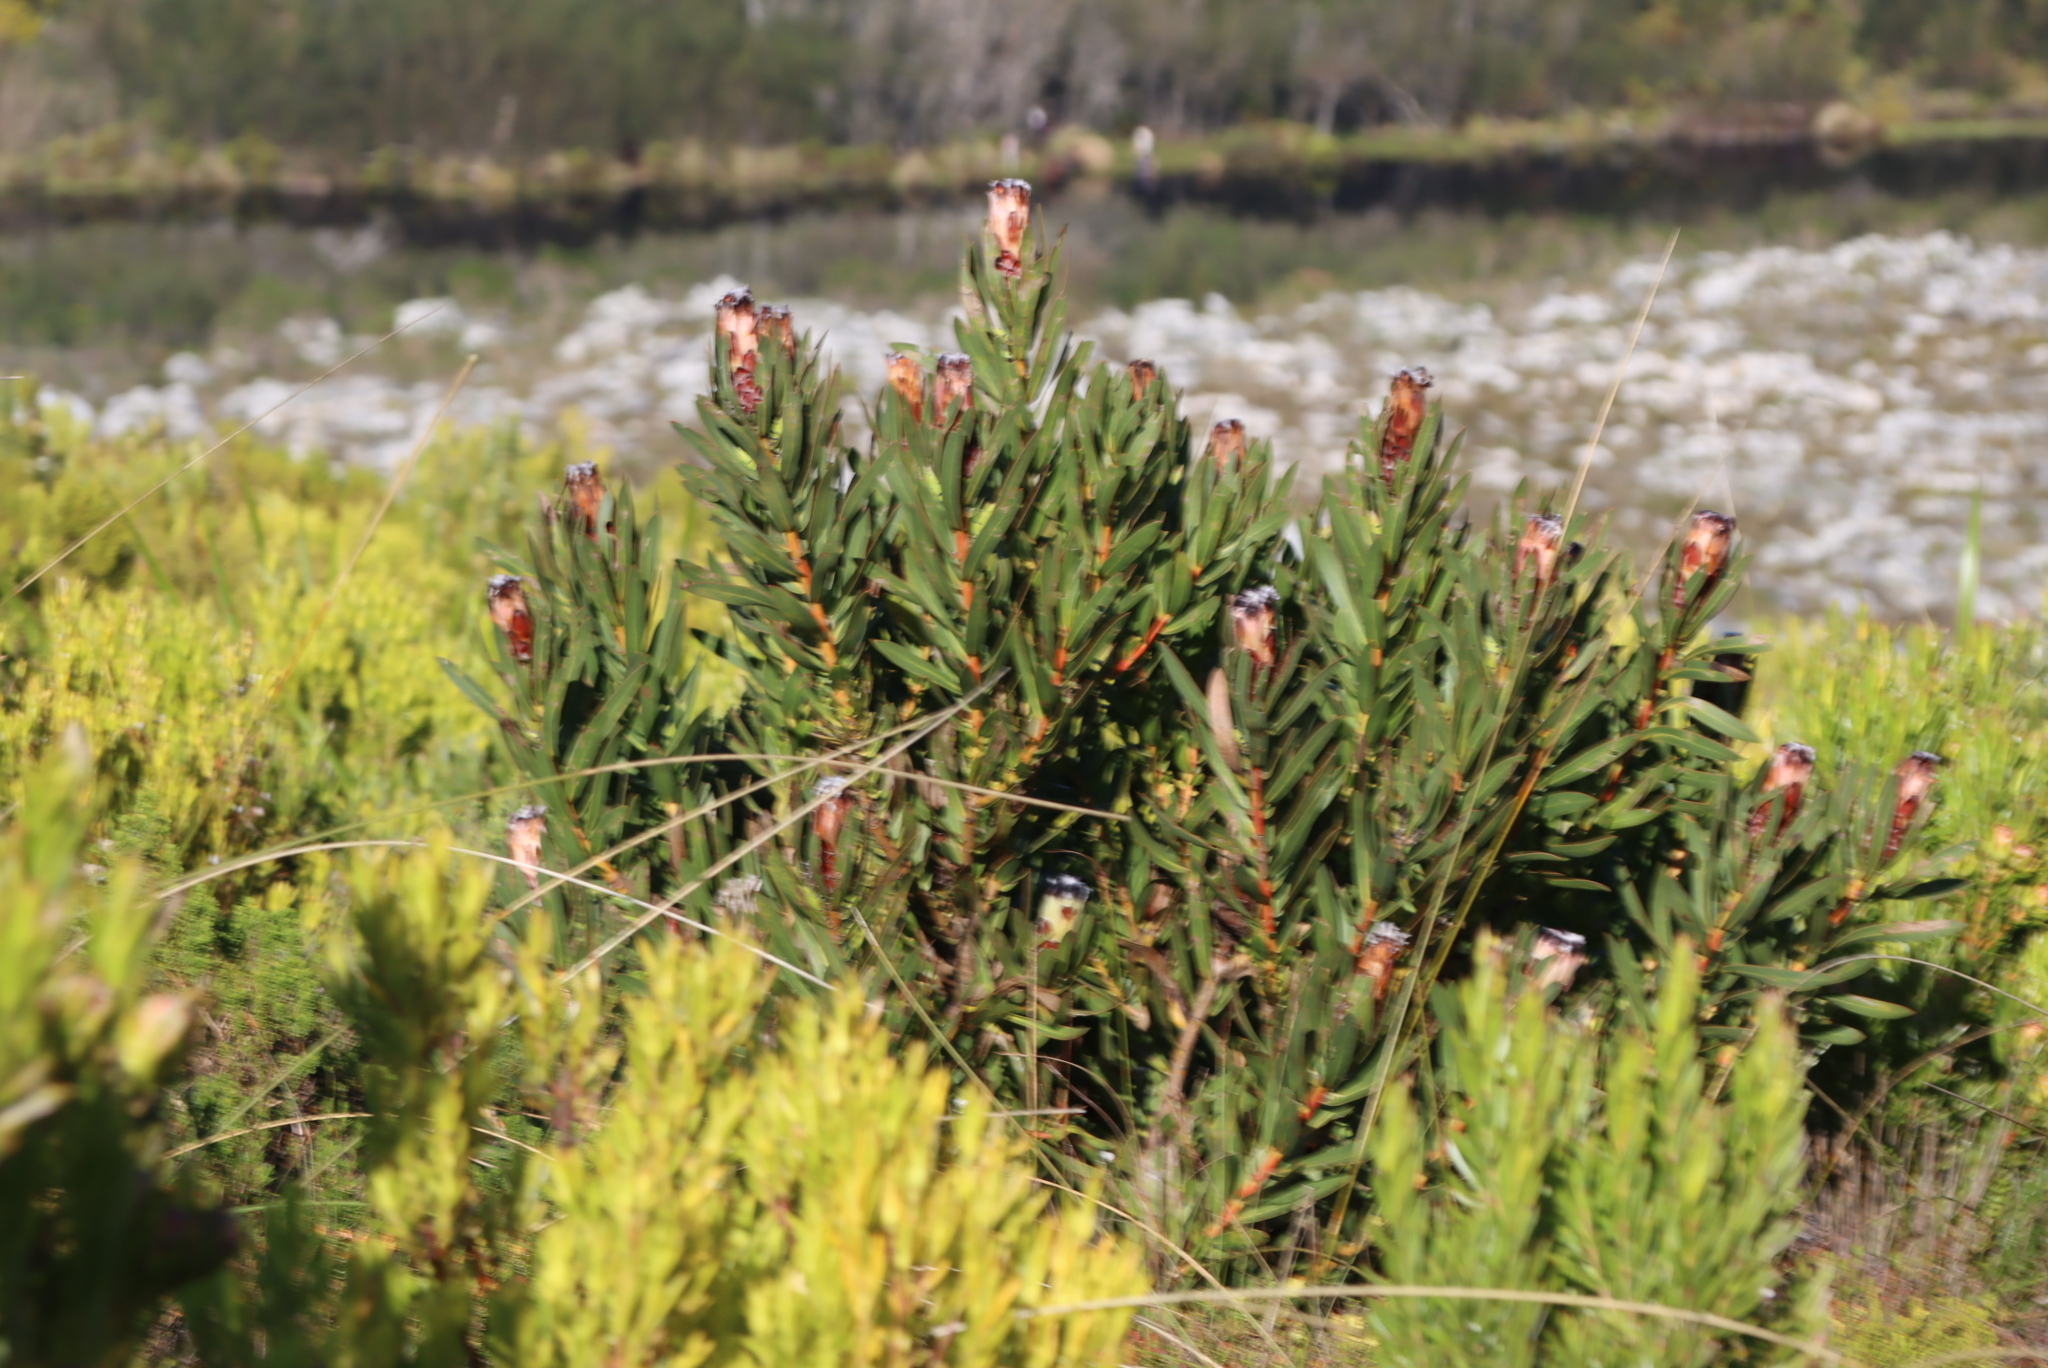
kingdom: Plantae
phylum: Tracheophyta
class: Magnoliopsida
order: Proteales
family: Proteaceae
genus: Protea
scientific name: Protea lepidocarpodendron
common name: Black-bearded protea
